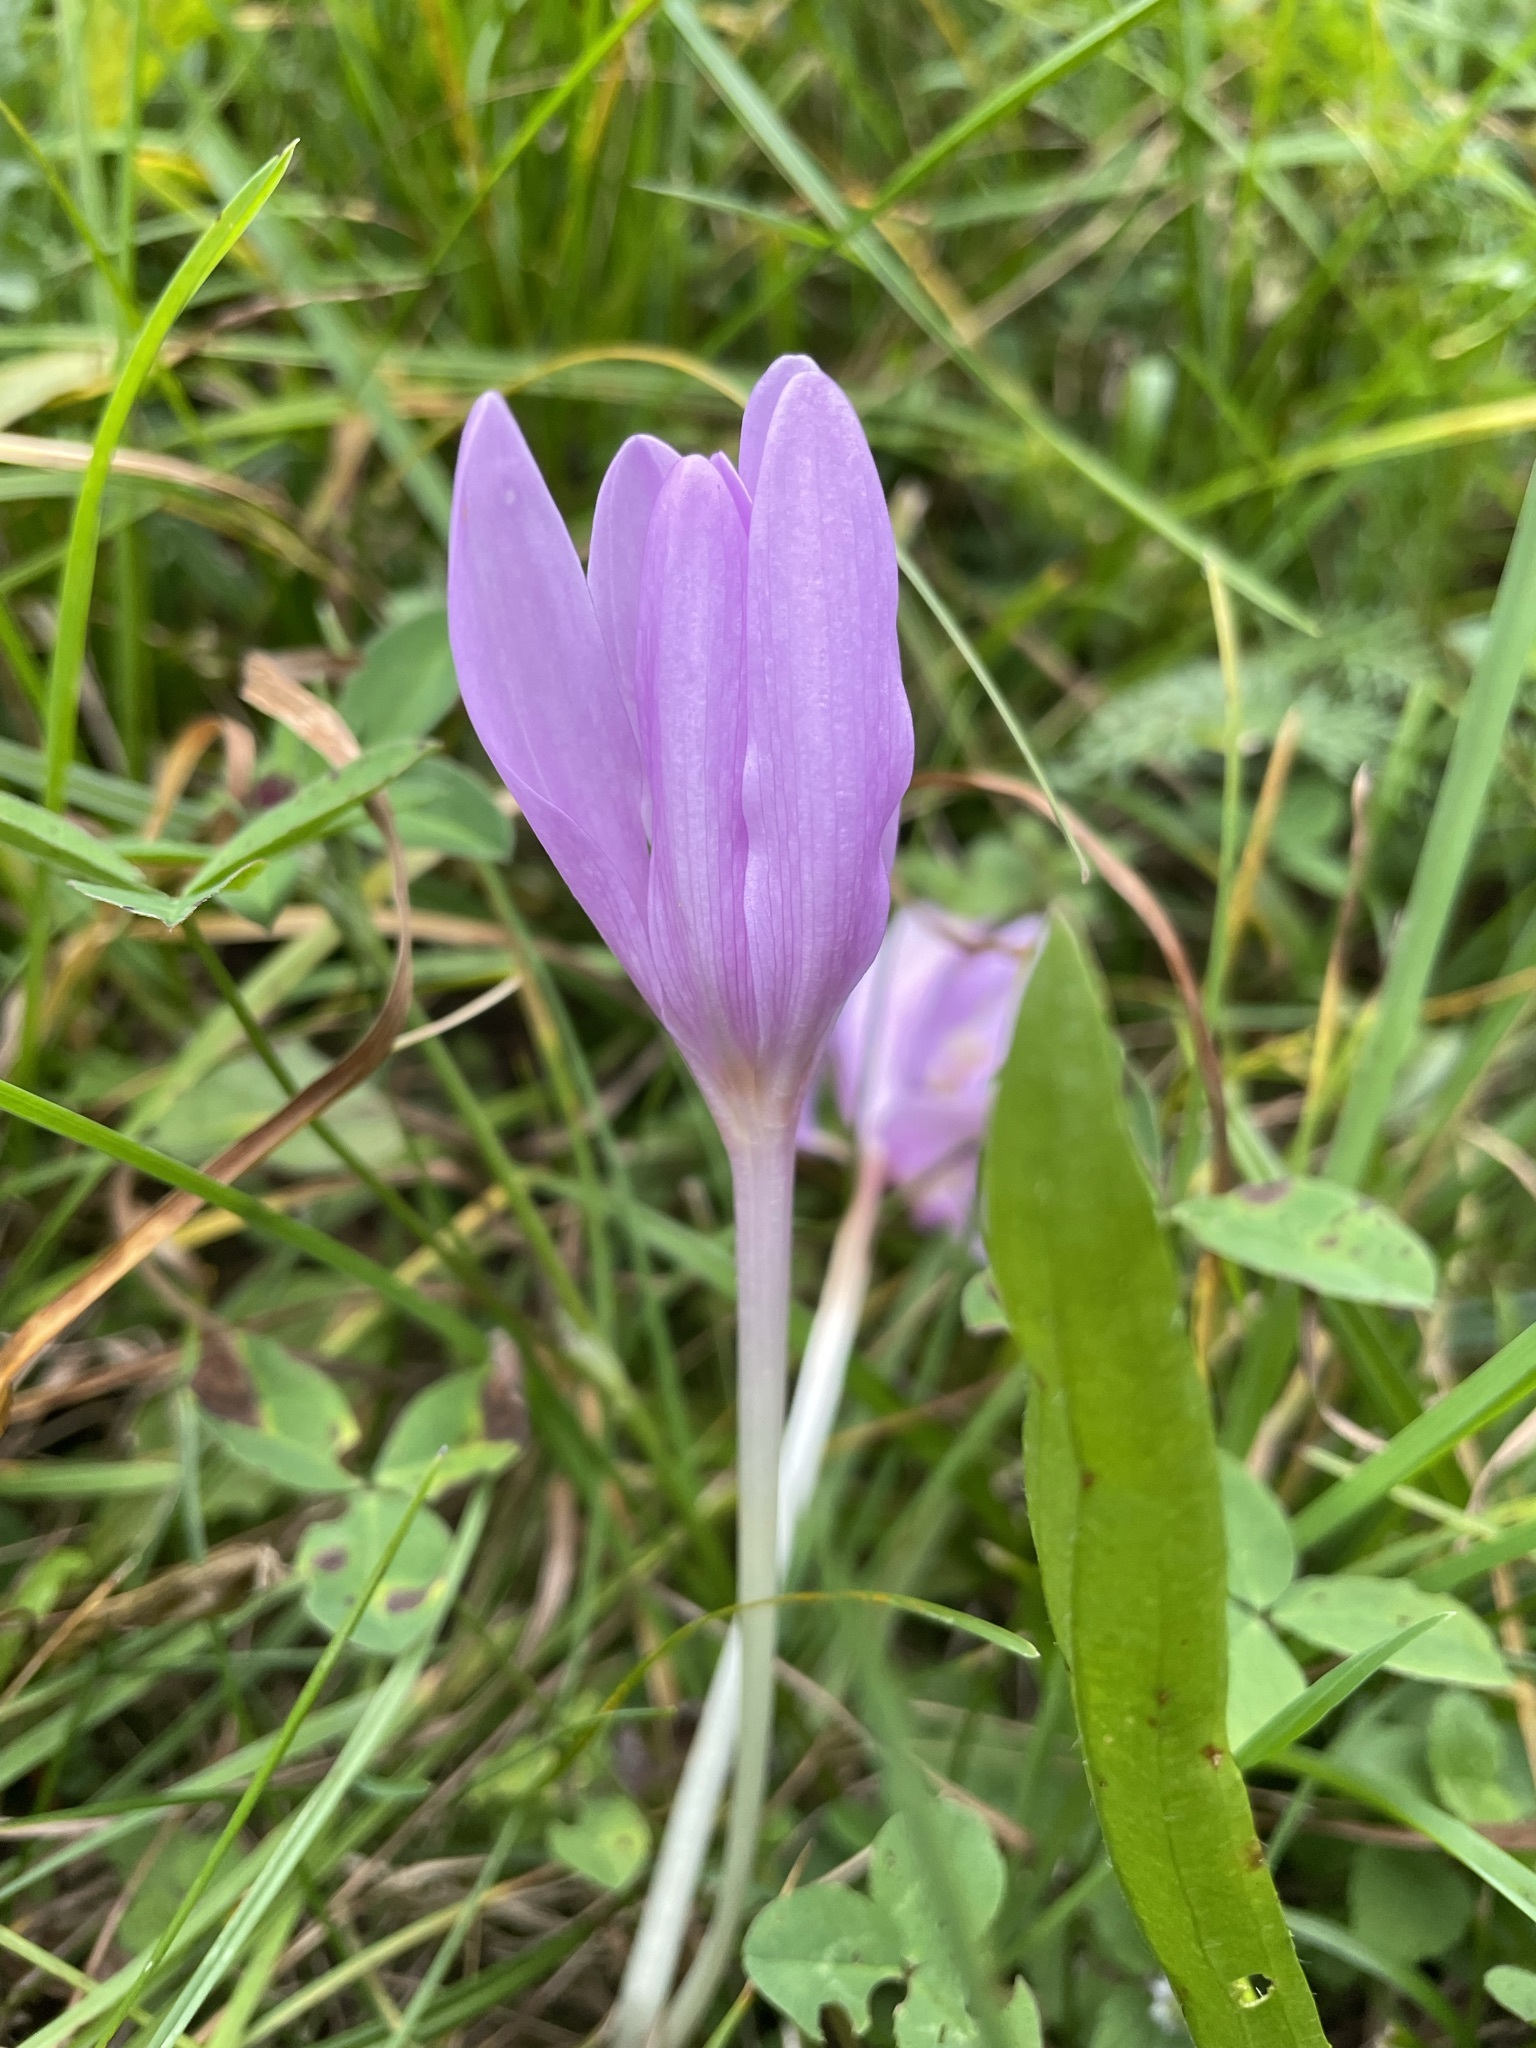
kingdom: Plantae
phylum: Tracheophyta
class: Liliopsida
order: Liliales
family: Colchicaceae
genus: Colchicum
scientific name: Colchicum autumnale
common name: Autumn crocus
